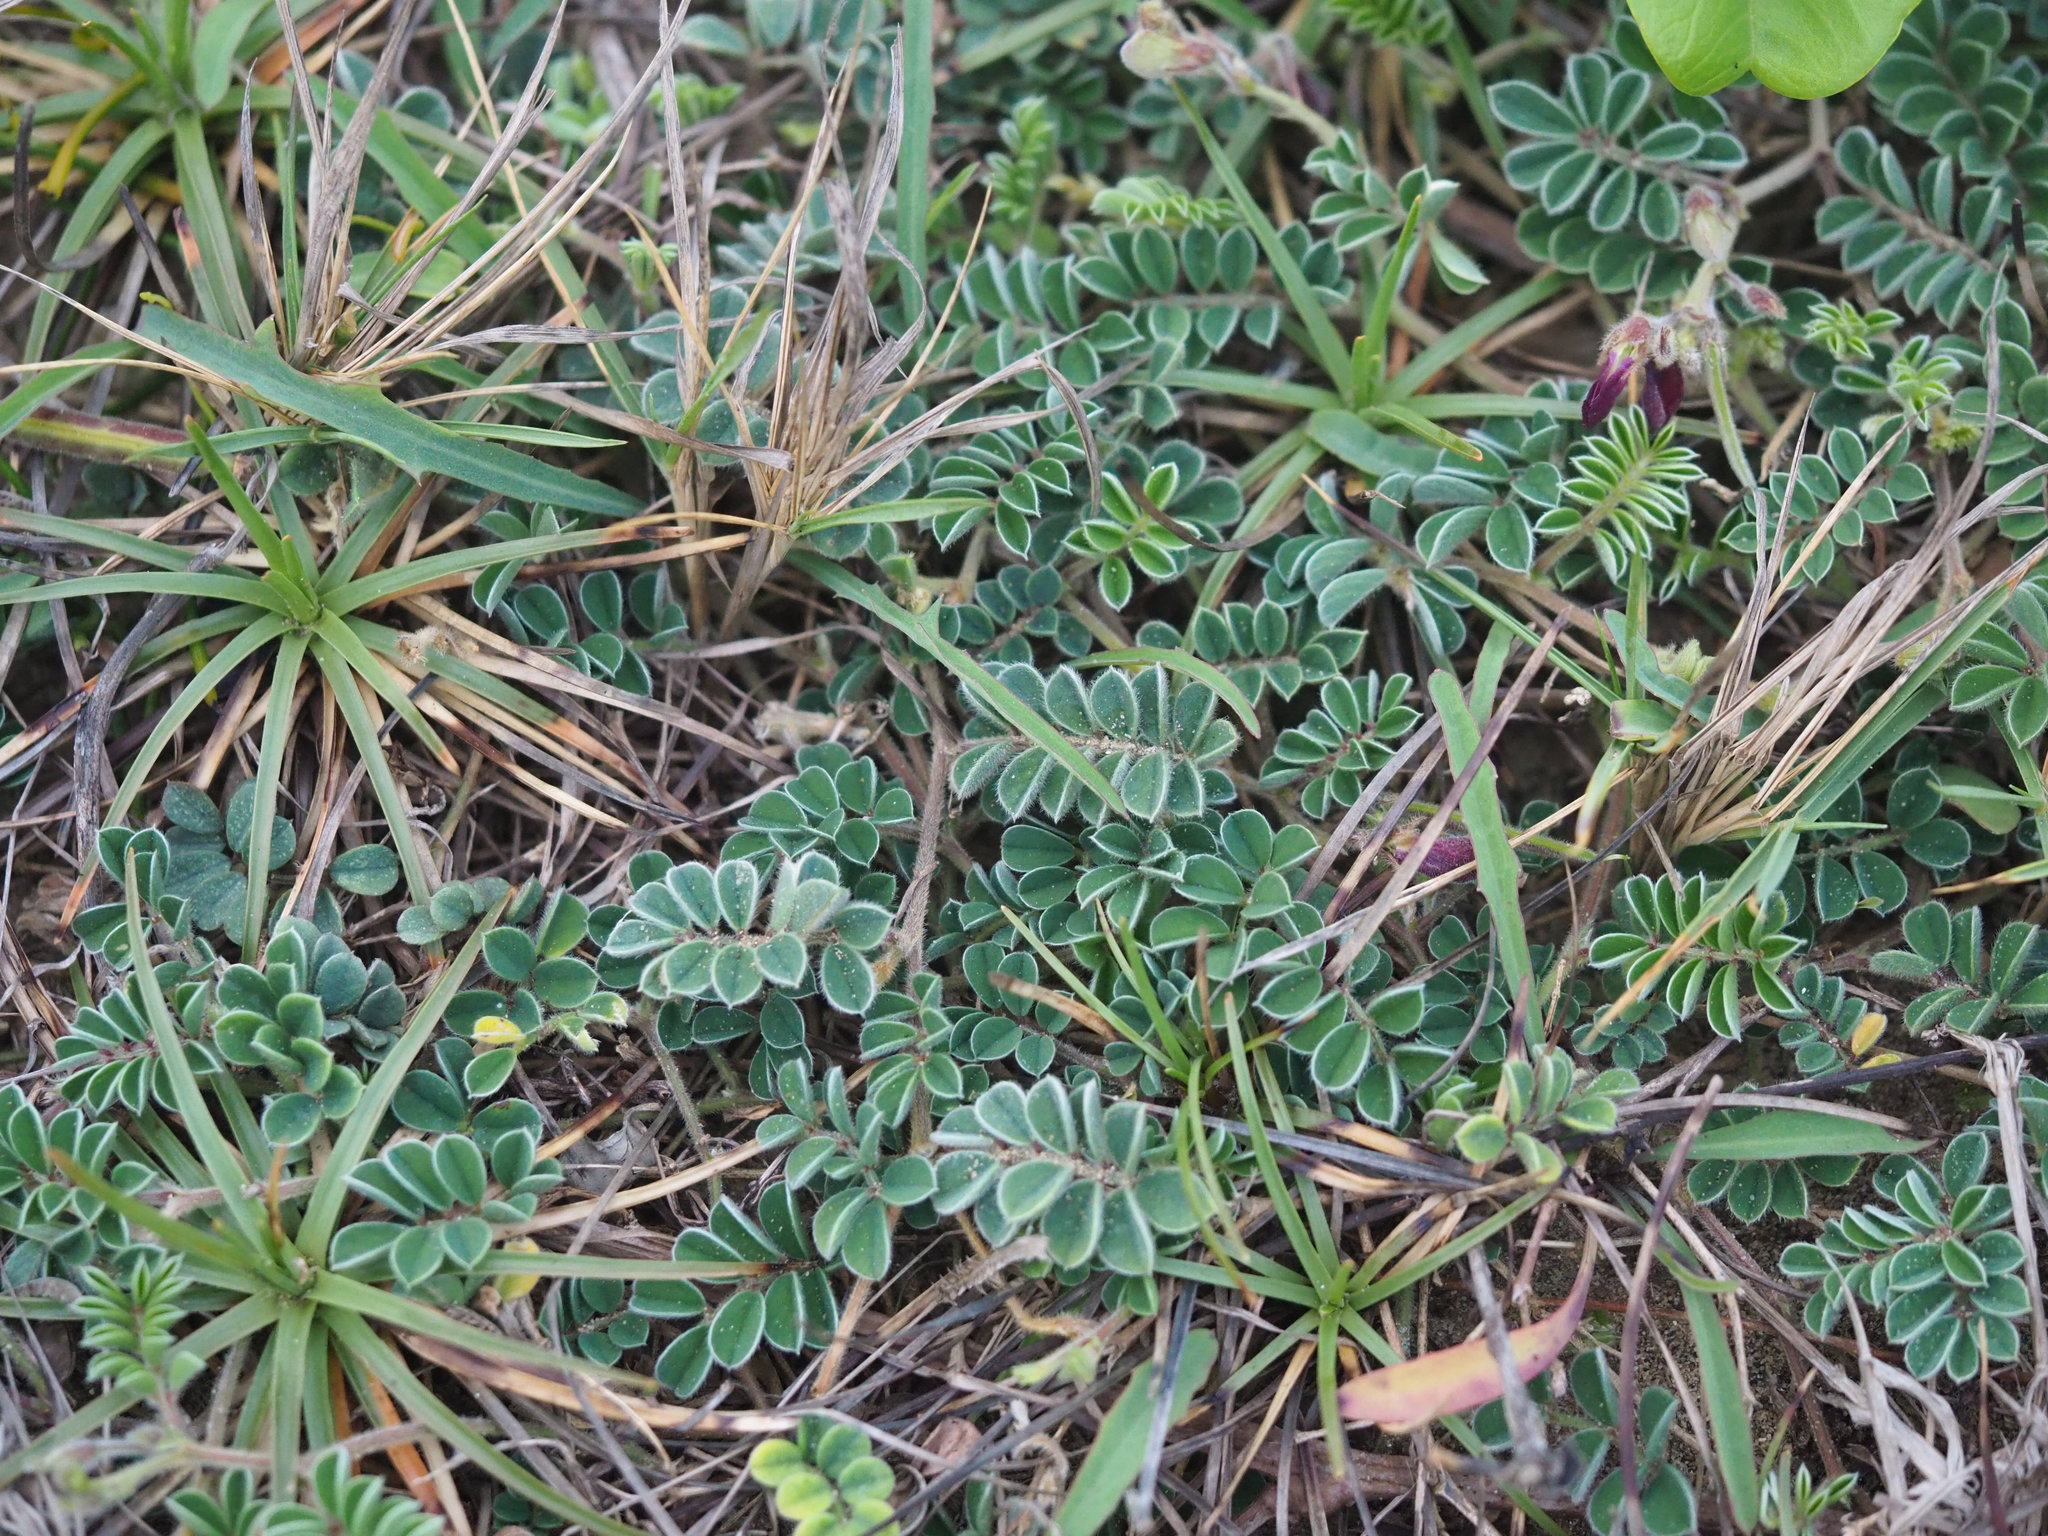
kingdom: Plantae
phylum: Tracheophyta
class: Magnoliopsida
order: Fabales
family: Fabaceae
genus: Tephrosia
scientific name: Tephrosia obovata
